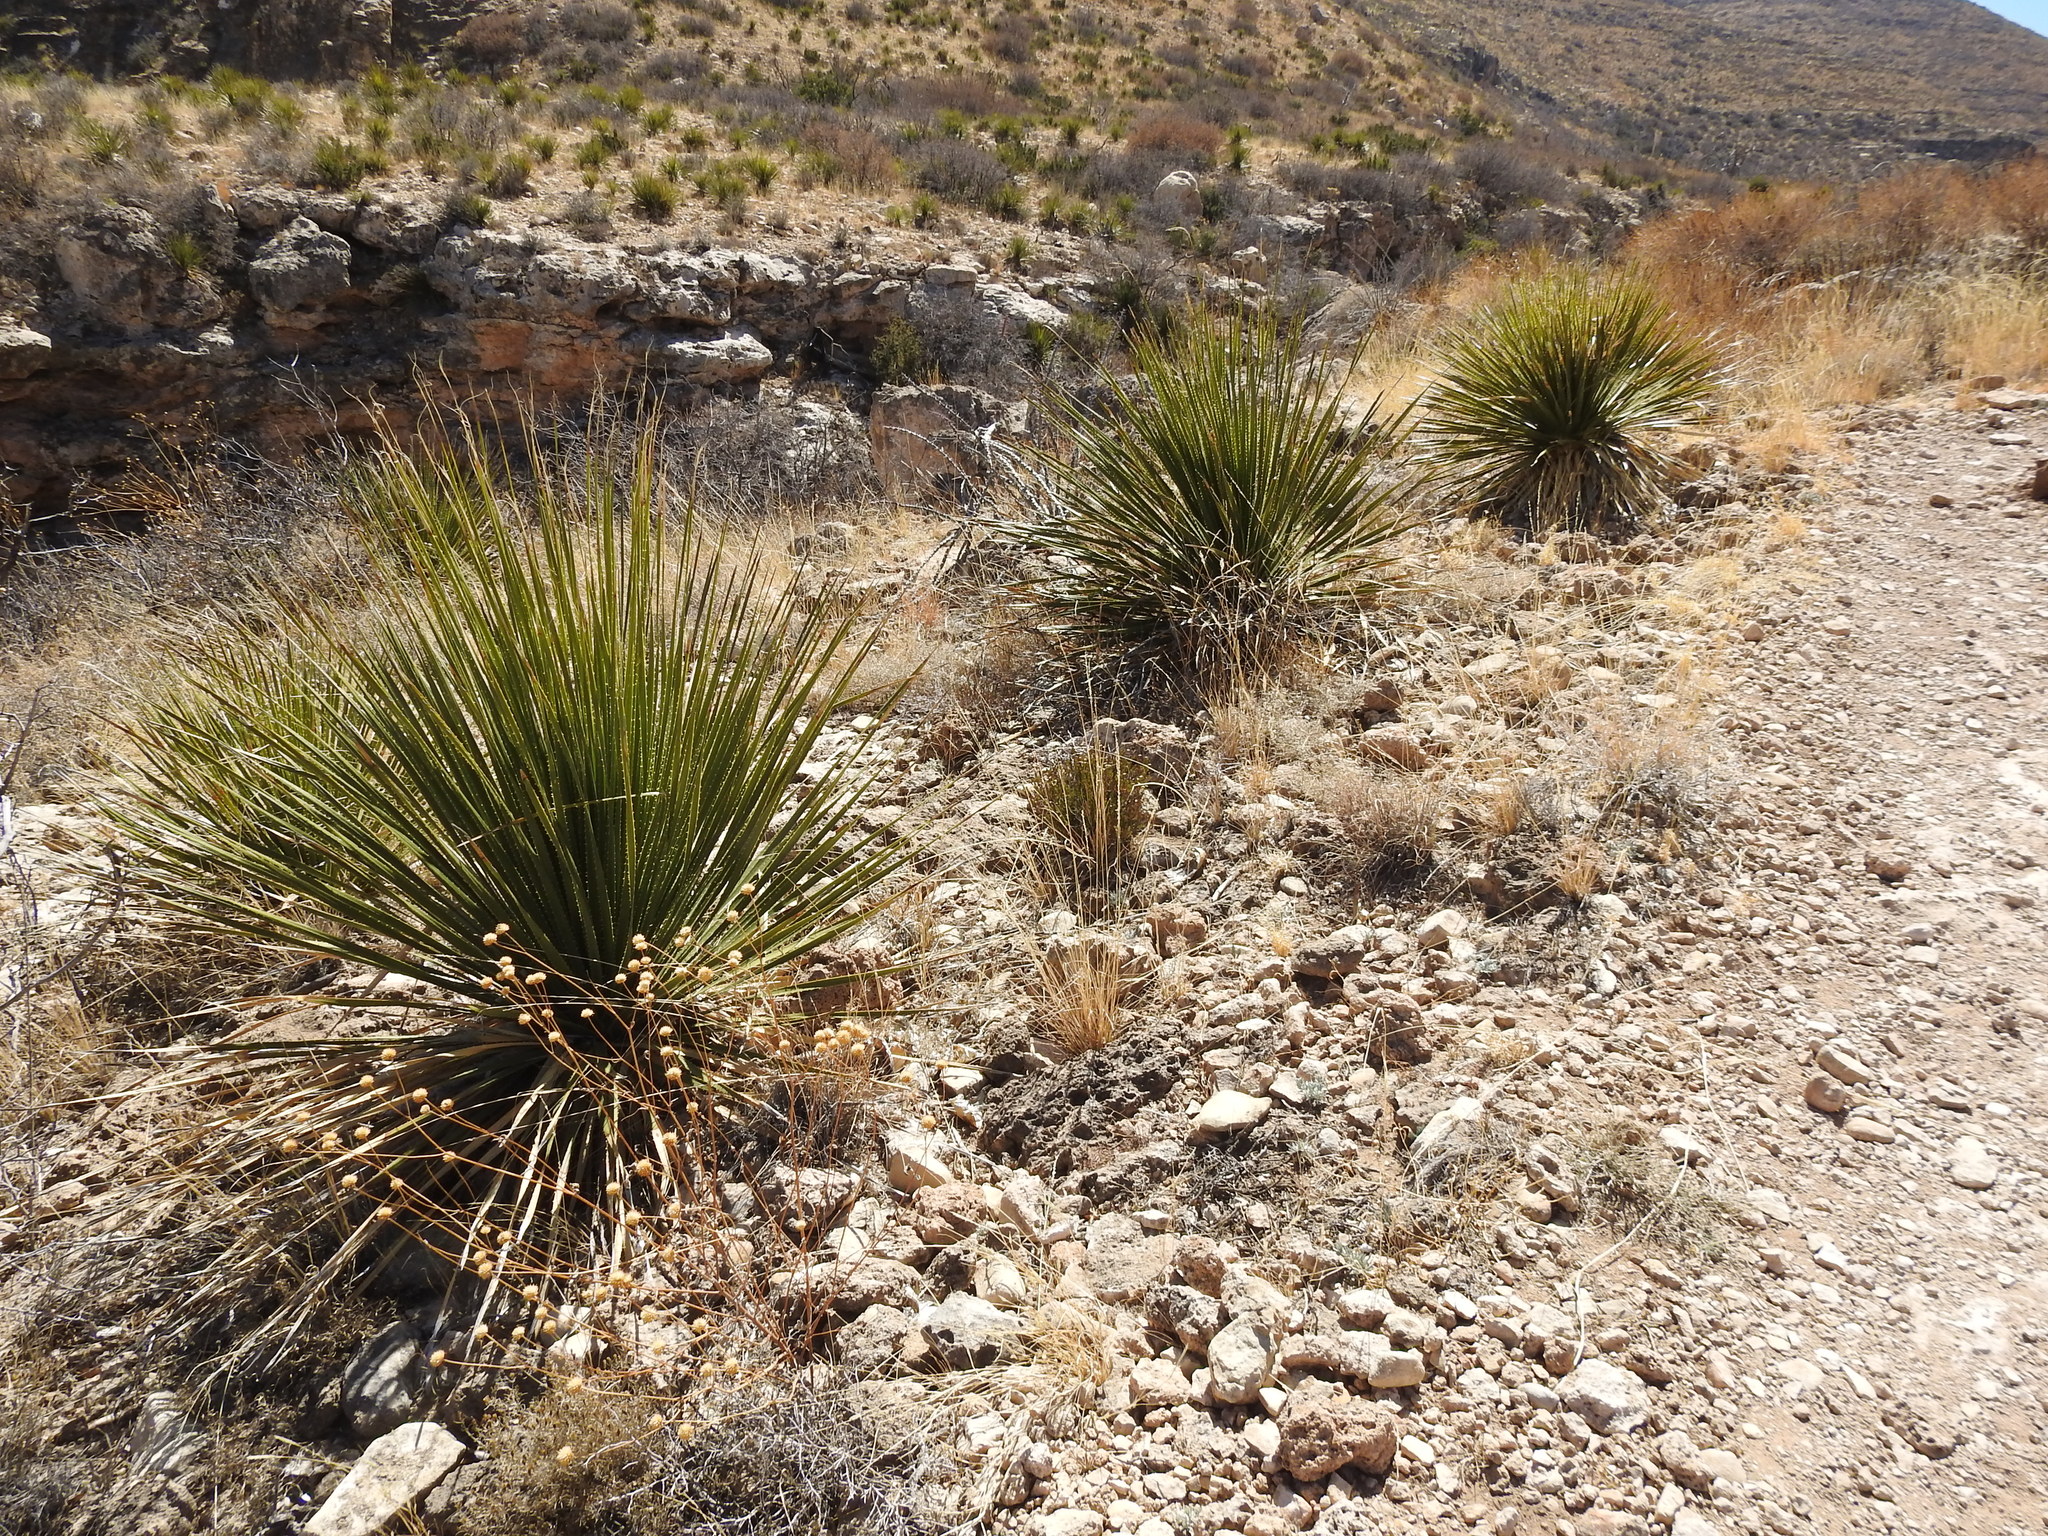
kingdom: Plantae
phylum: Tracheophyta
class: Liliopsida
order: Asparagales
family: Asparagaceae
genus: Dasylirion
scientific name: Dasylirion leiophyllum
